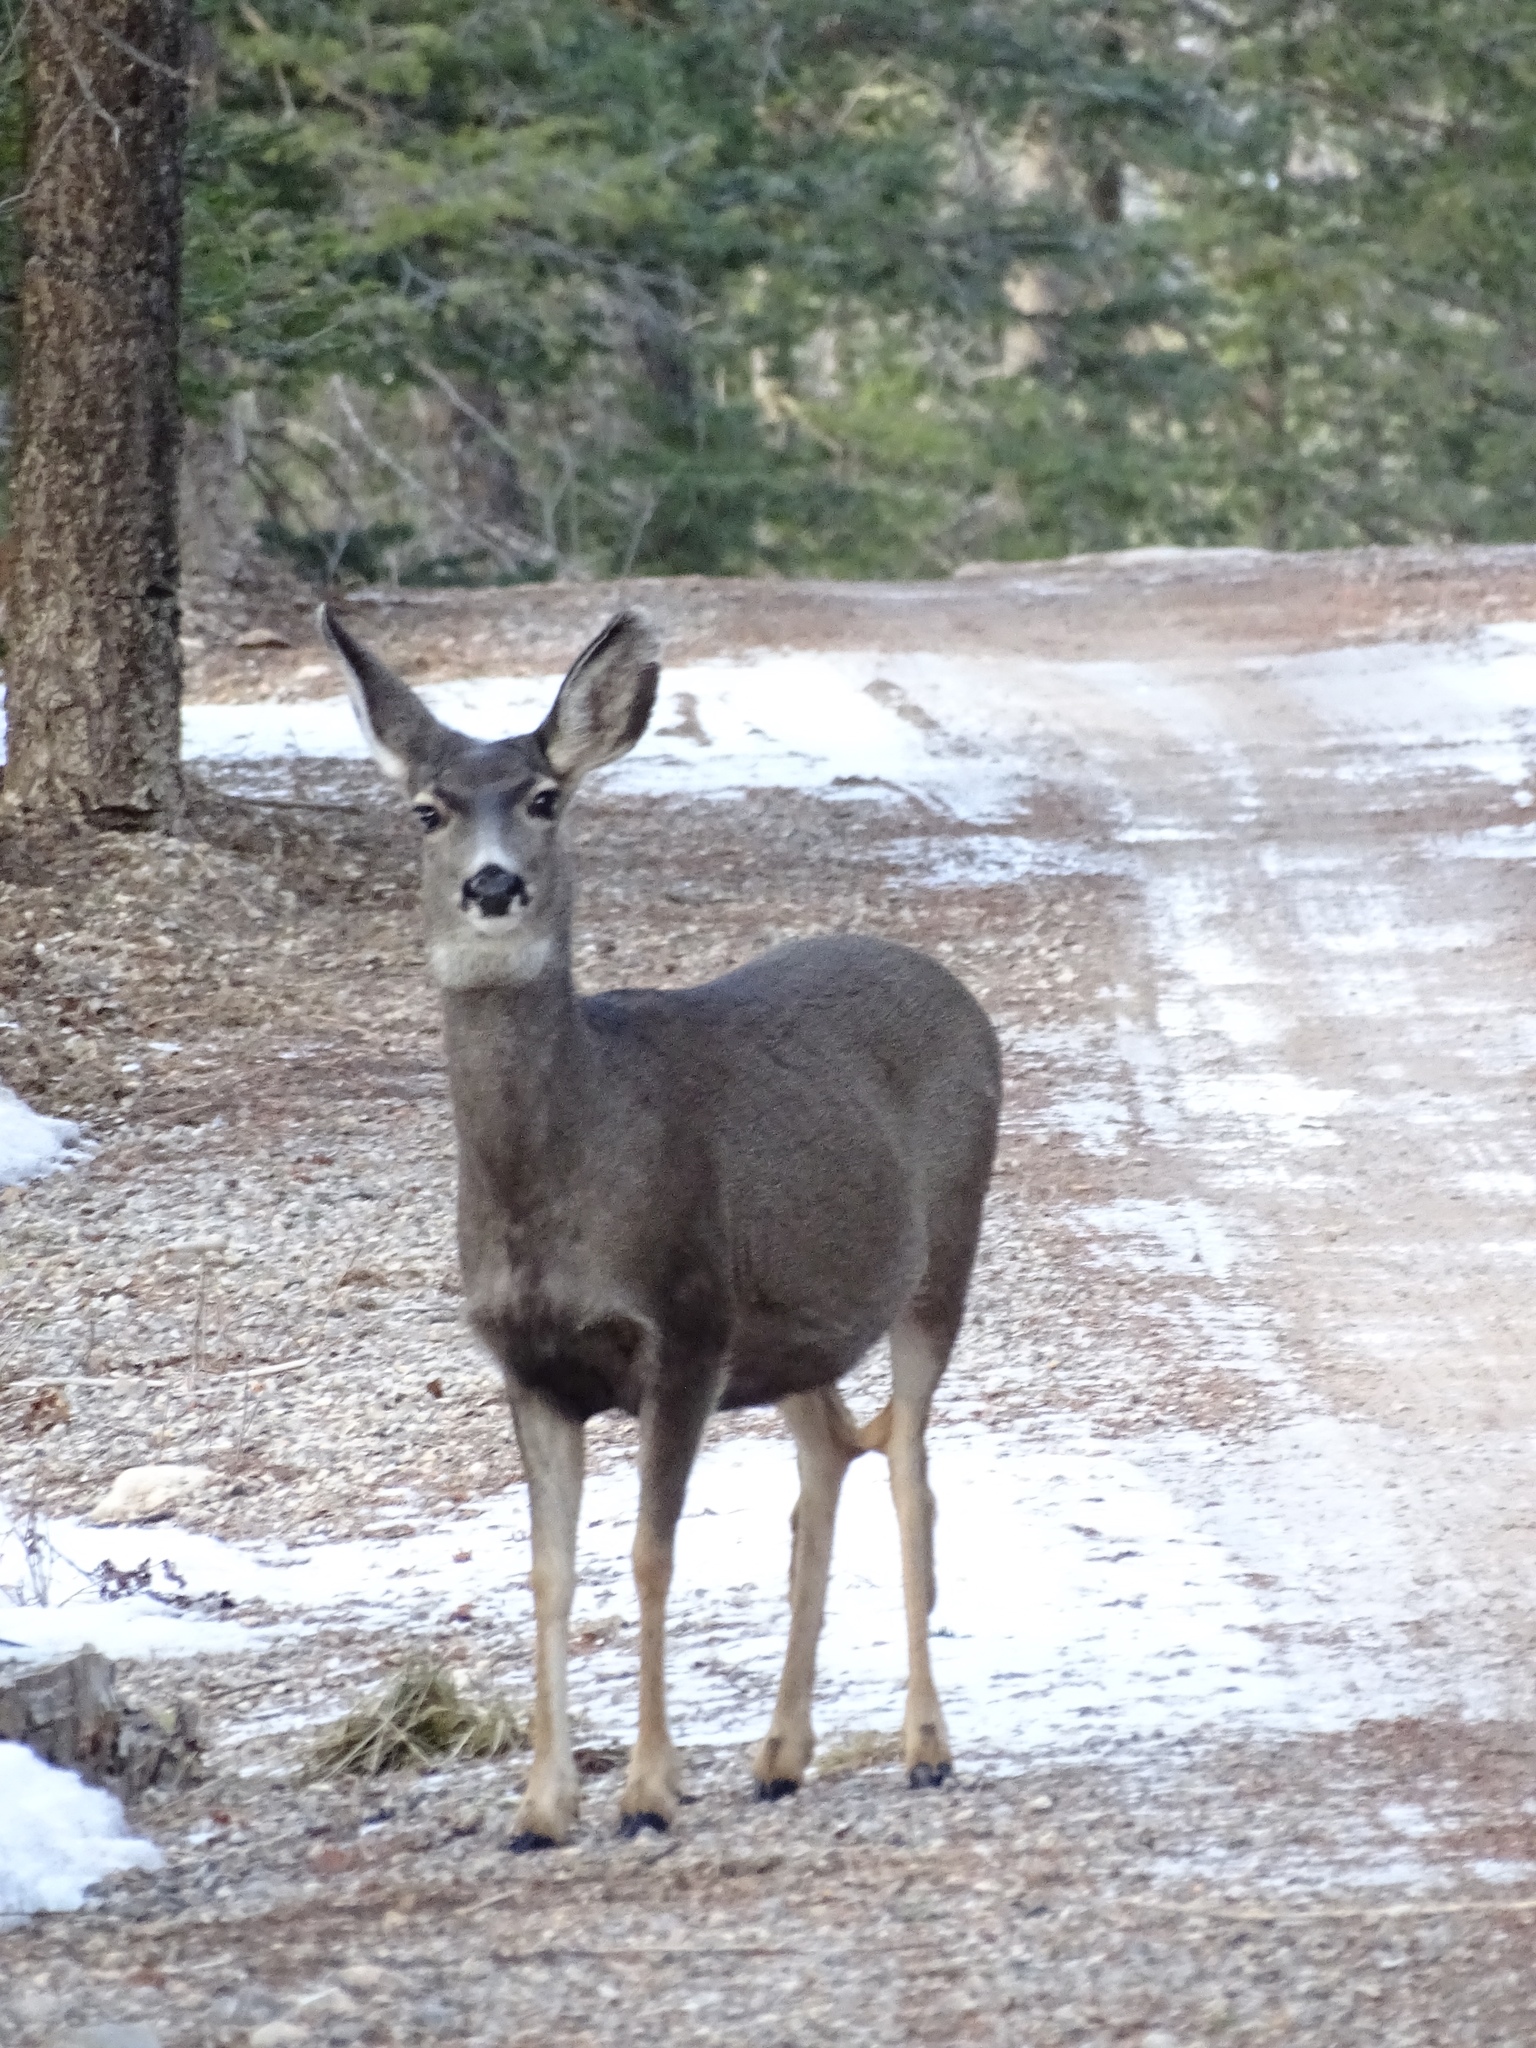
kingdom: Animalia
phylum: Chordata
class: Mammalia
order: Artiodactyla
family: Cervidae
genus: Odocoileus
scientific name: Odocoileus hemionus
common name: Mule deer
